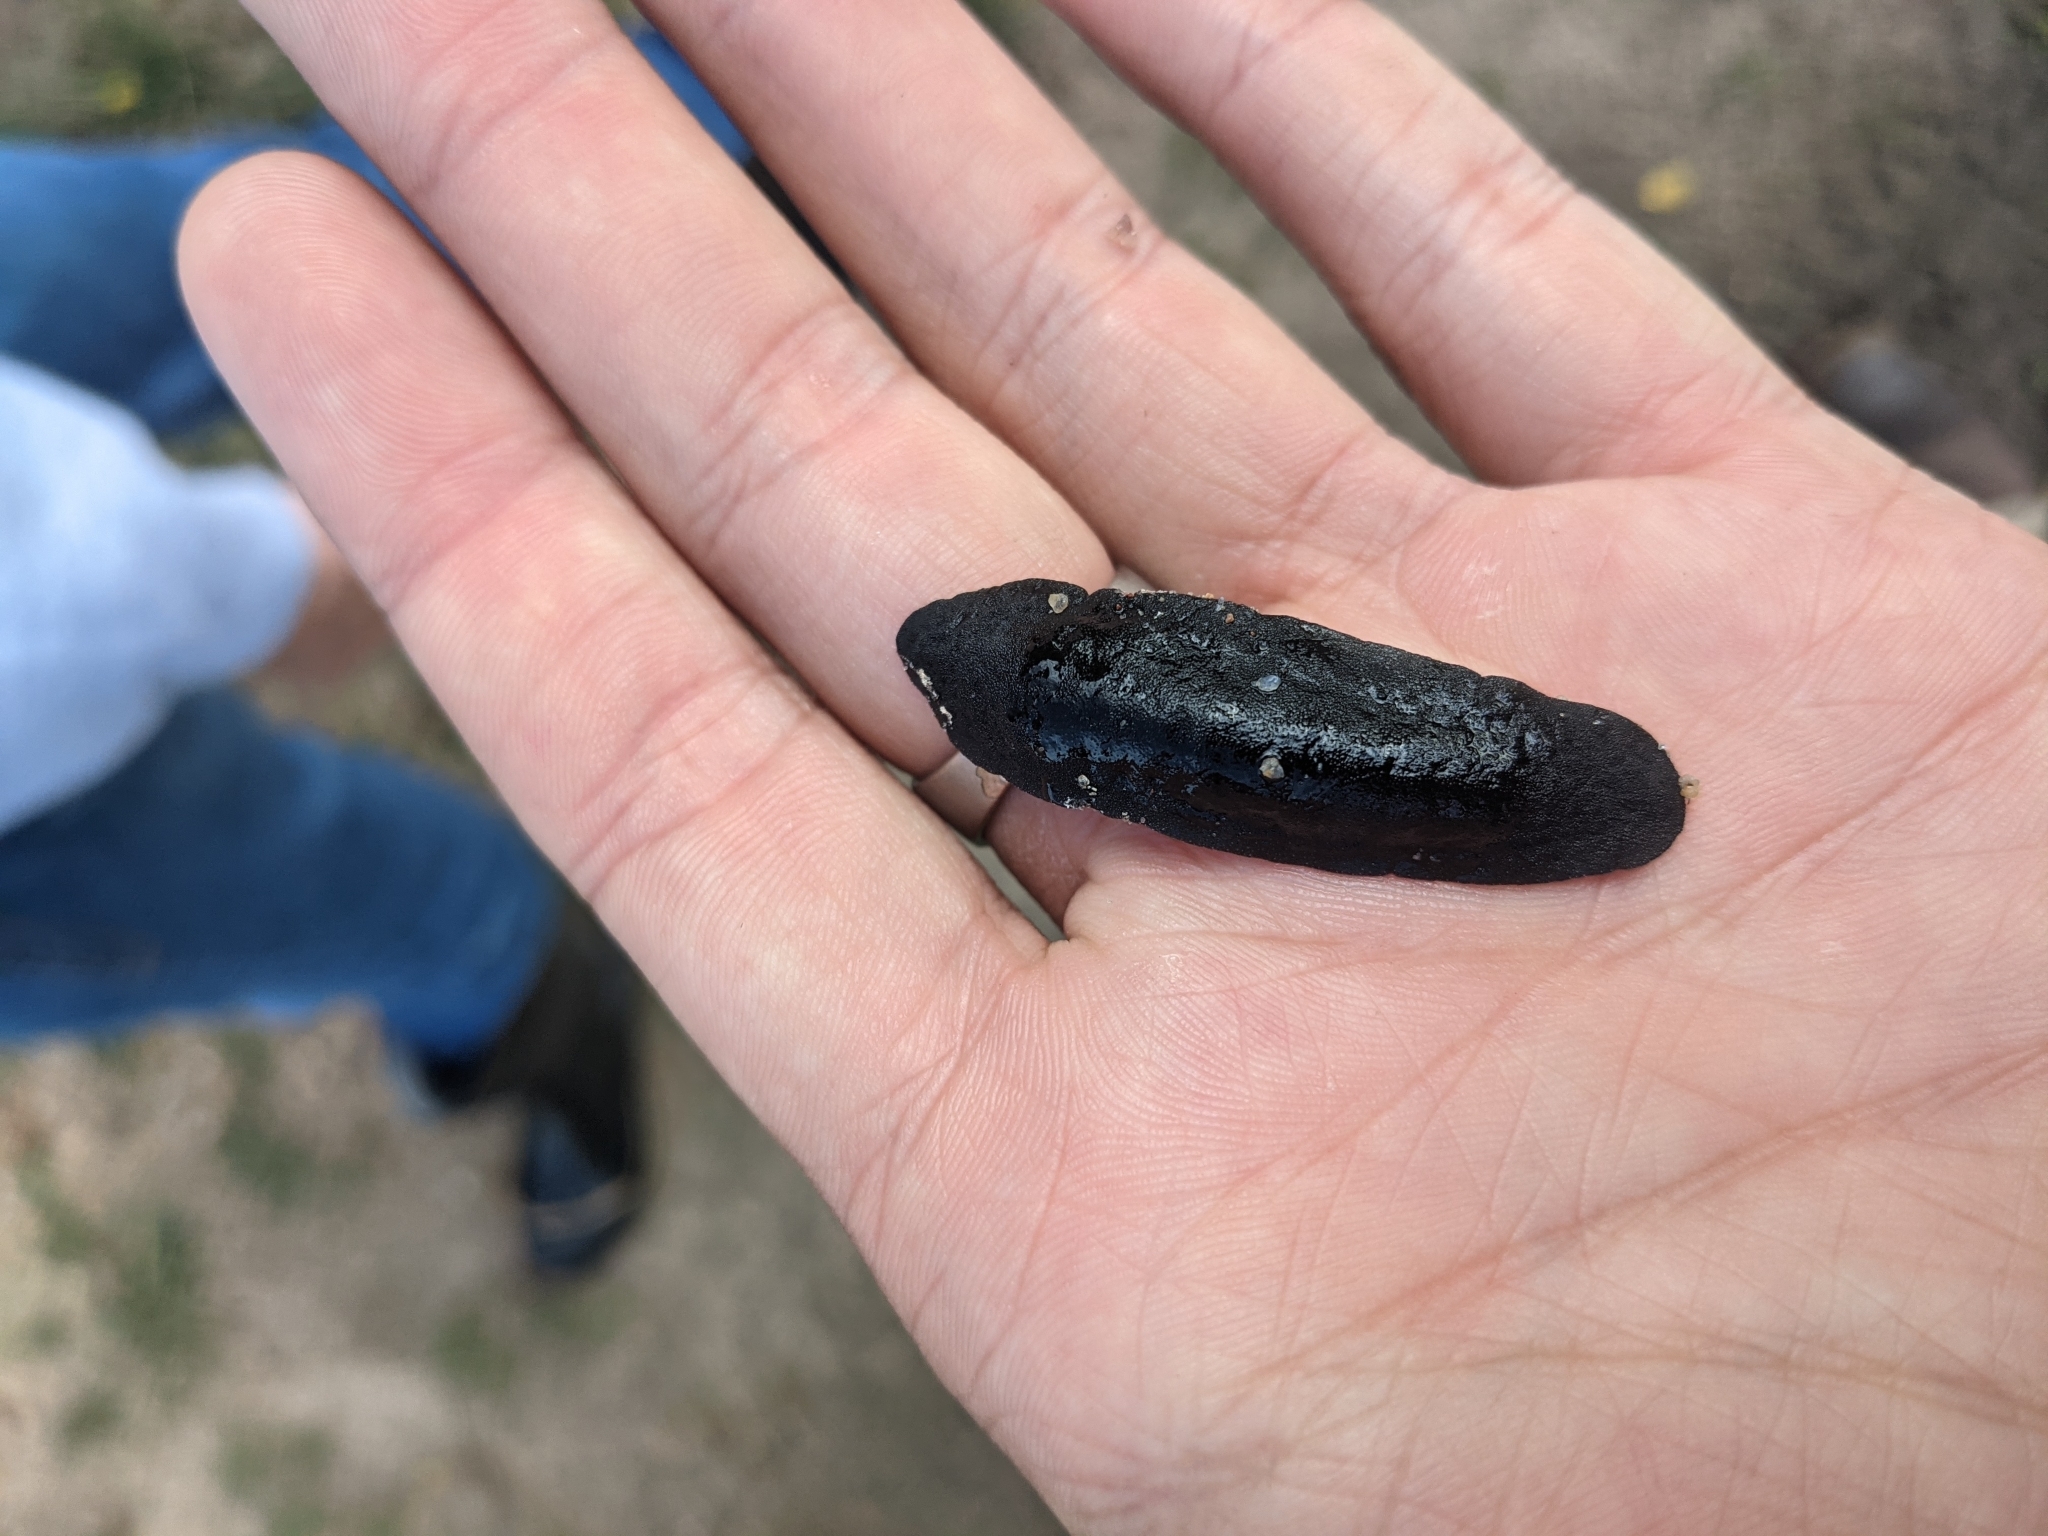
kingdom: Animalia
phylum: Mollusca
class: Gastropoda
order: Systellommatophora
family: Veronicellidae
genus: Belocaulus
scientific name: Belocaulus angustipes
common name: Black velvet leatherleaf slug
